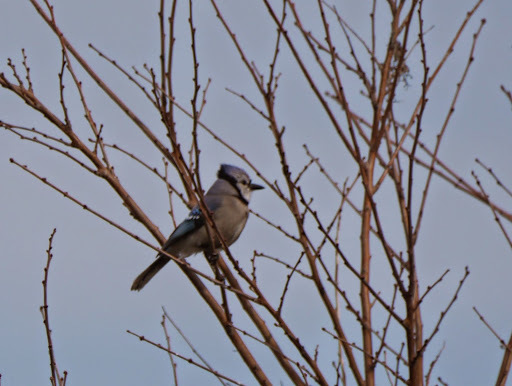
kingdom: Animalia
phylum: Chordata
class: Aves
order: Passeriformes
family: Corvidae
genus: Cyanocitta
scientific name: Cyanocitta cristata
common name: Blue jay
